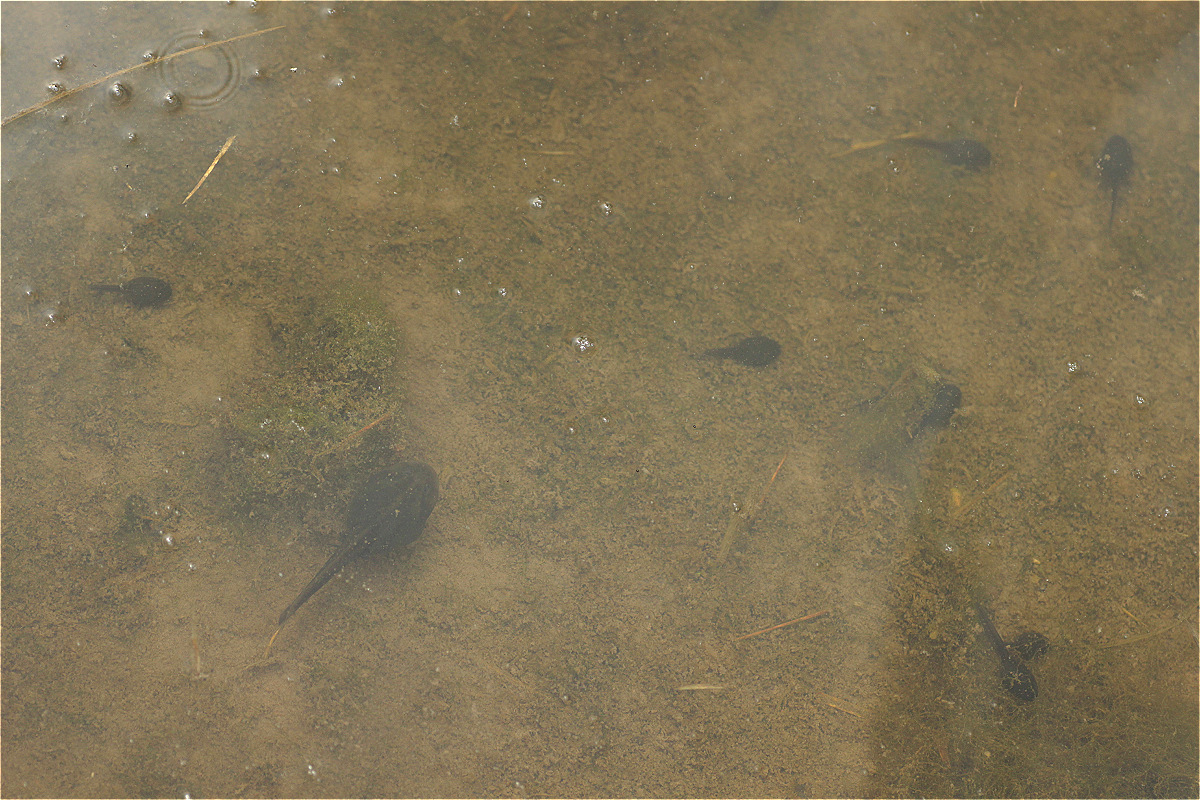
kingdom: Animalia
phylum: Chordata
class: Amphibia
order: Anura
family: Hemiphractidae
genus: Gastrotheca
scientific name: Gastrotheca cuencana
